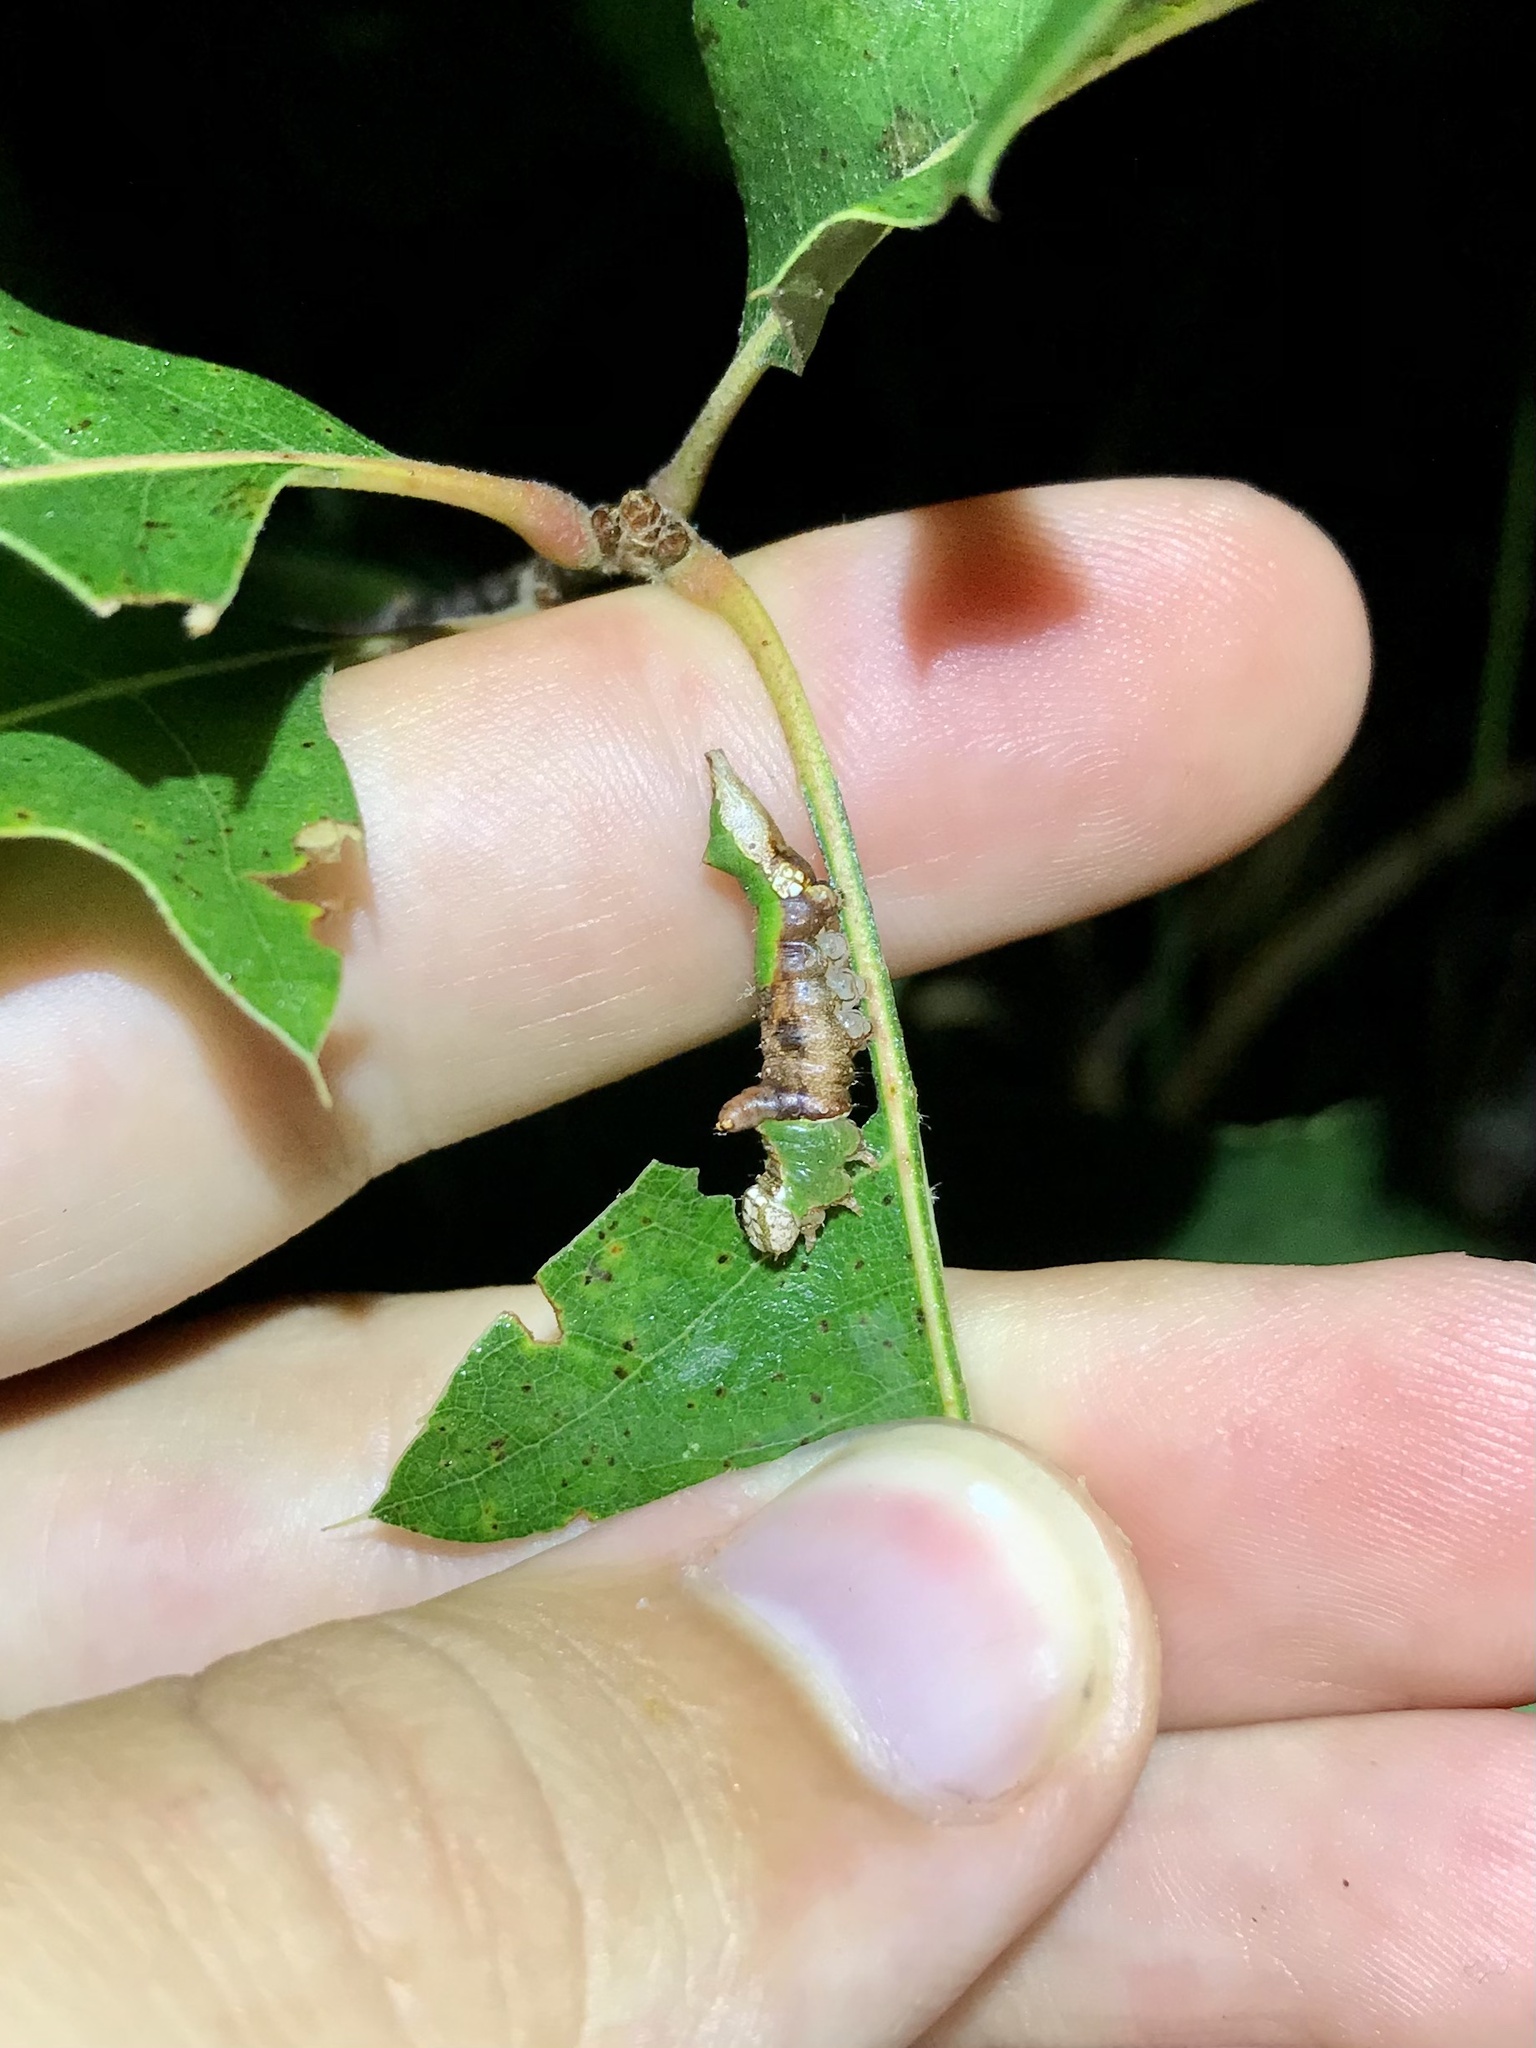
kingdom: Animalia
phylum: Arthropoda
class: Insecta
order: Lepidoptera
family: Notodontidae
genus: Oligocentria
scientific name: Oligocentria Ianassa lignicolor
